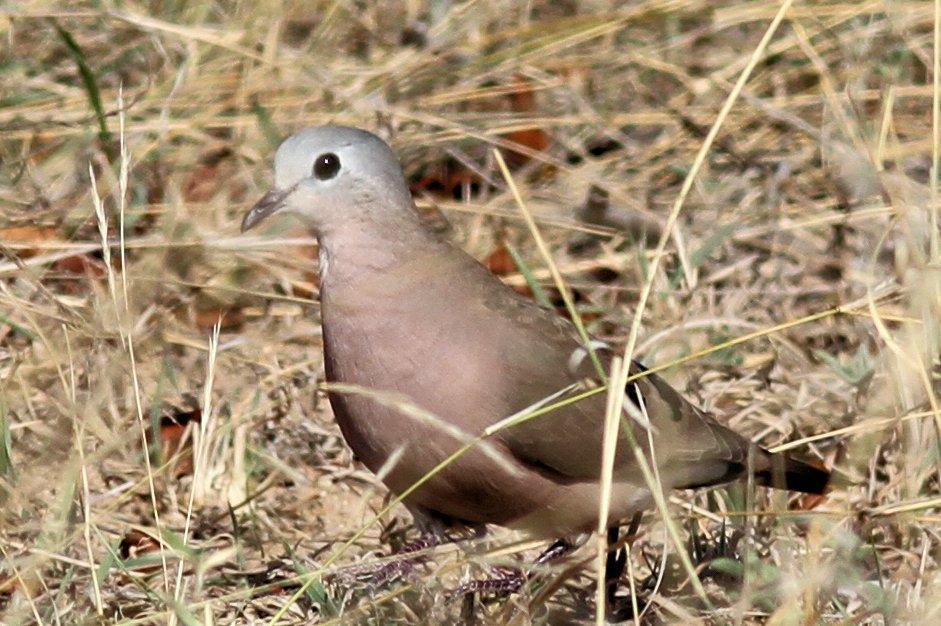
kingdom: Animalia
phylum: Chordata
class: Aves
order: Columbiformes
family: Columbidae
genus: Turtur
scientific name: Turtur chalcospilos
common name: Emerald-spotted wood dove
